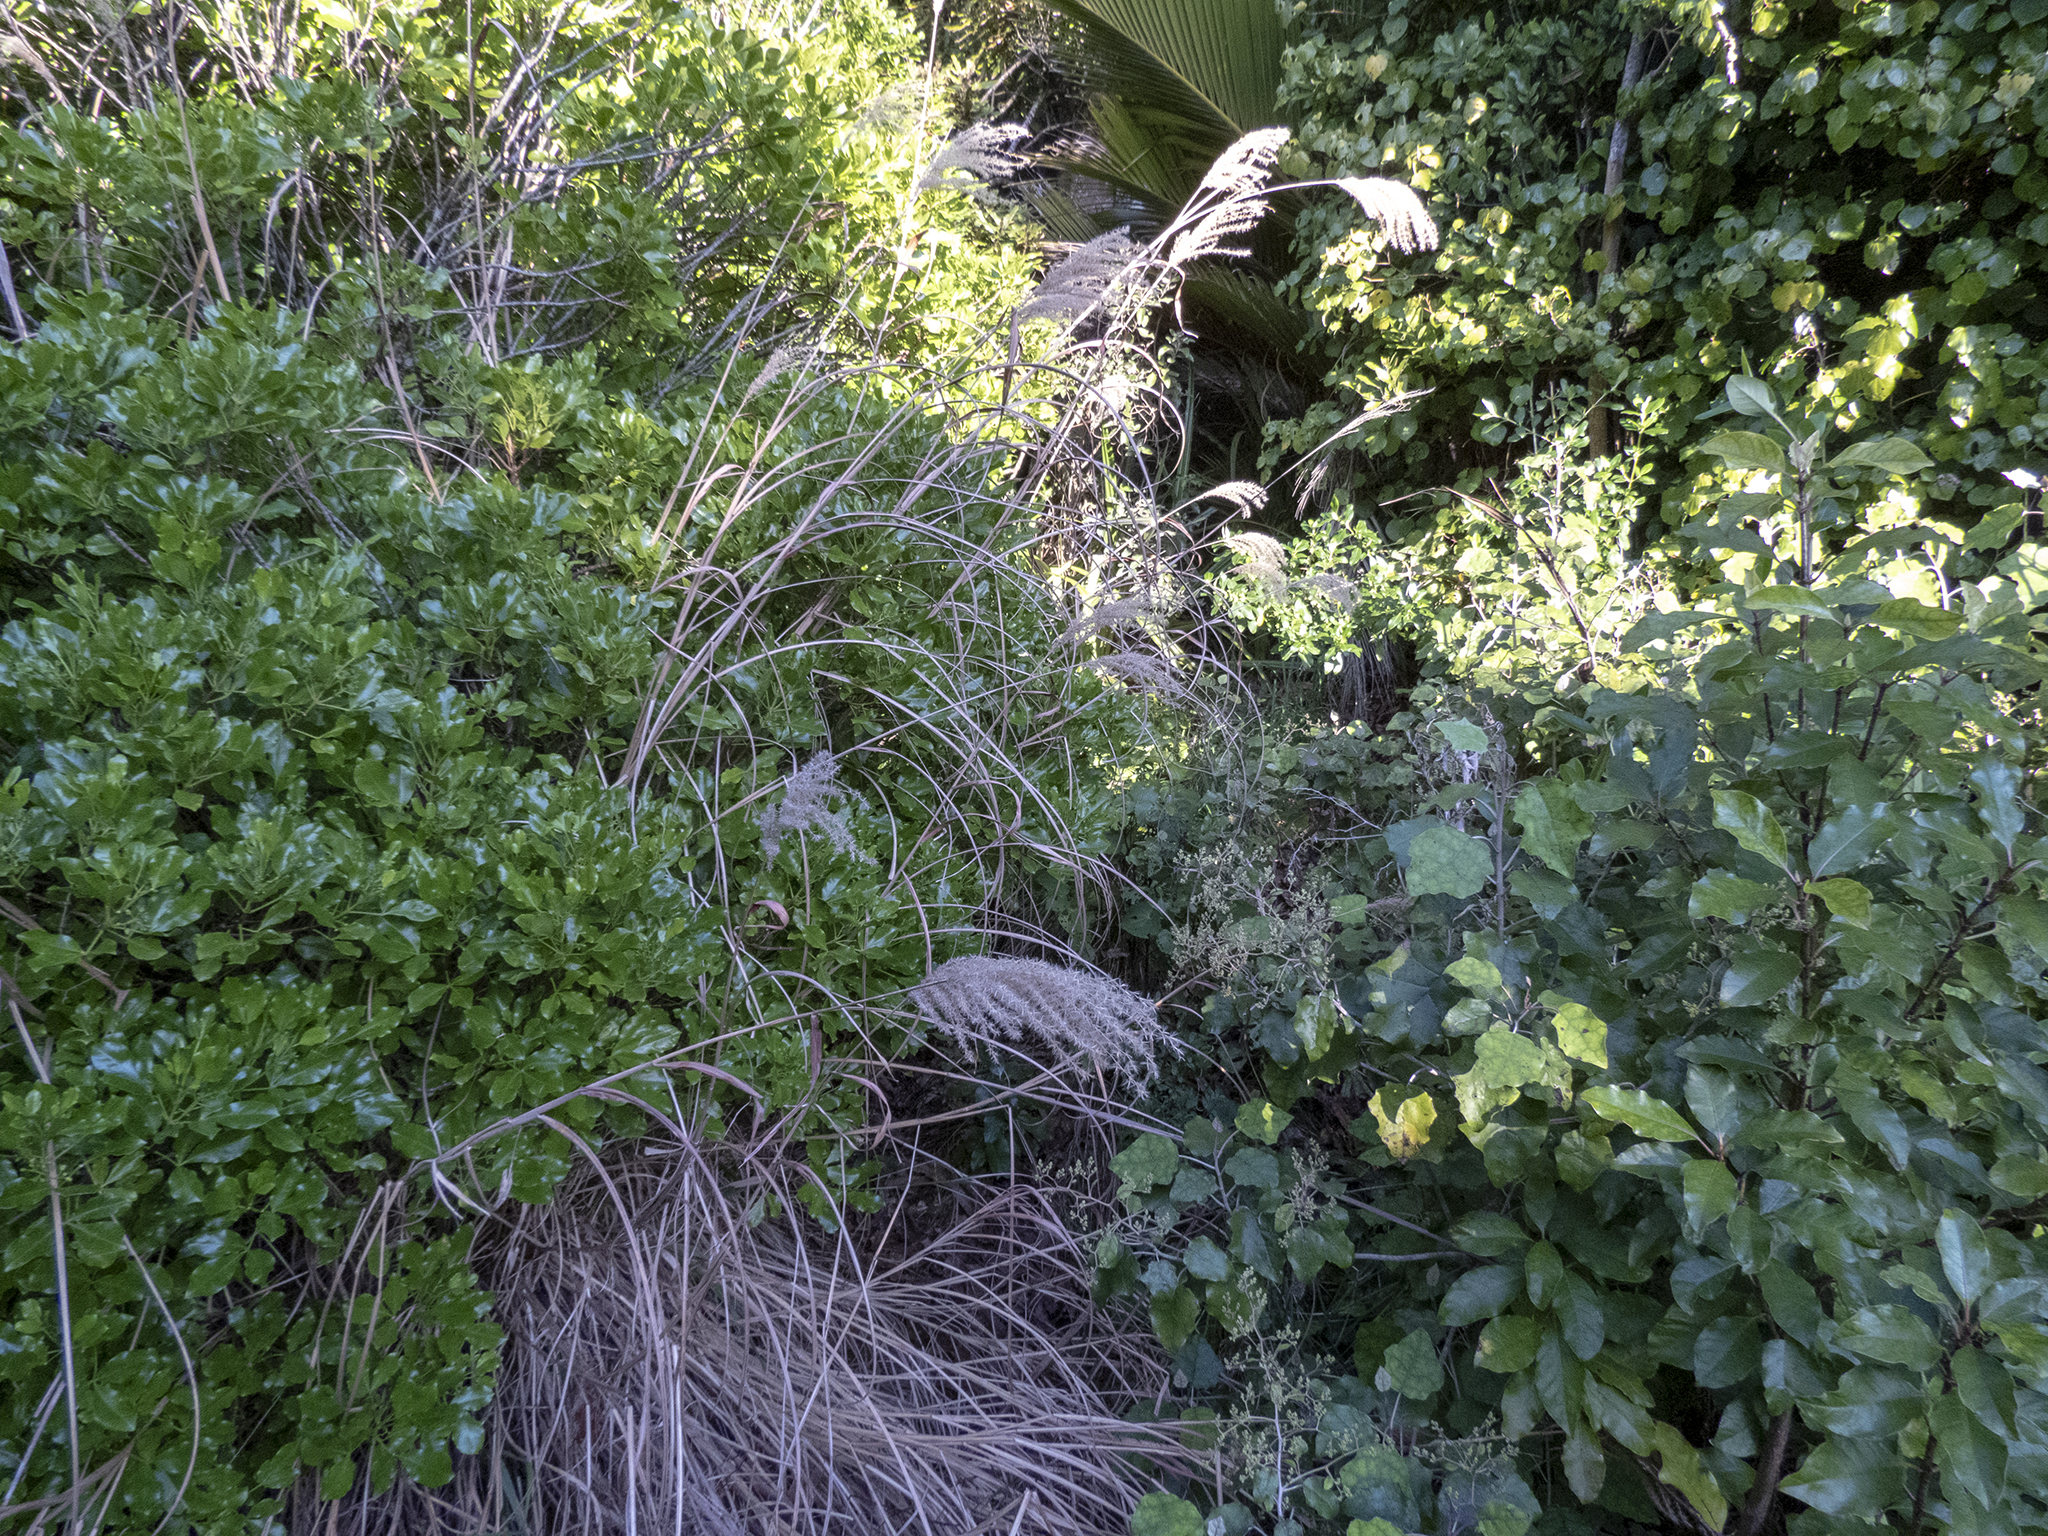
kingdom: Plantae
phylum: Tracheophyta
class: Liliopsida
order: Poales
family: Poaceae
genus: Miscanthus
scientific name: Miscanthus nepalensis
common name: Nepal silver grass
